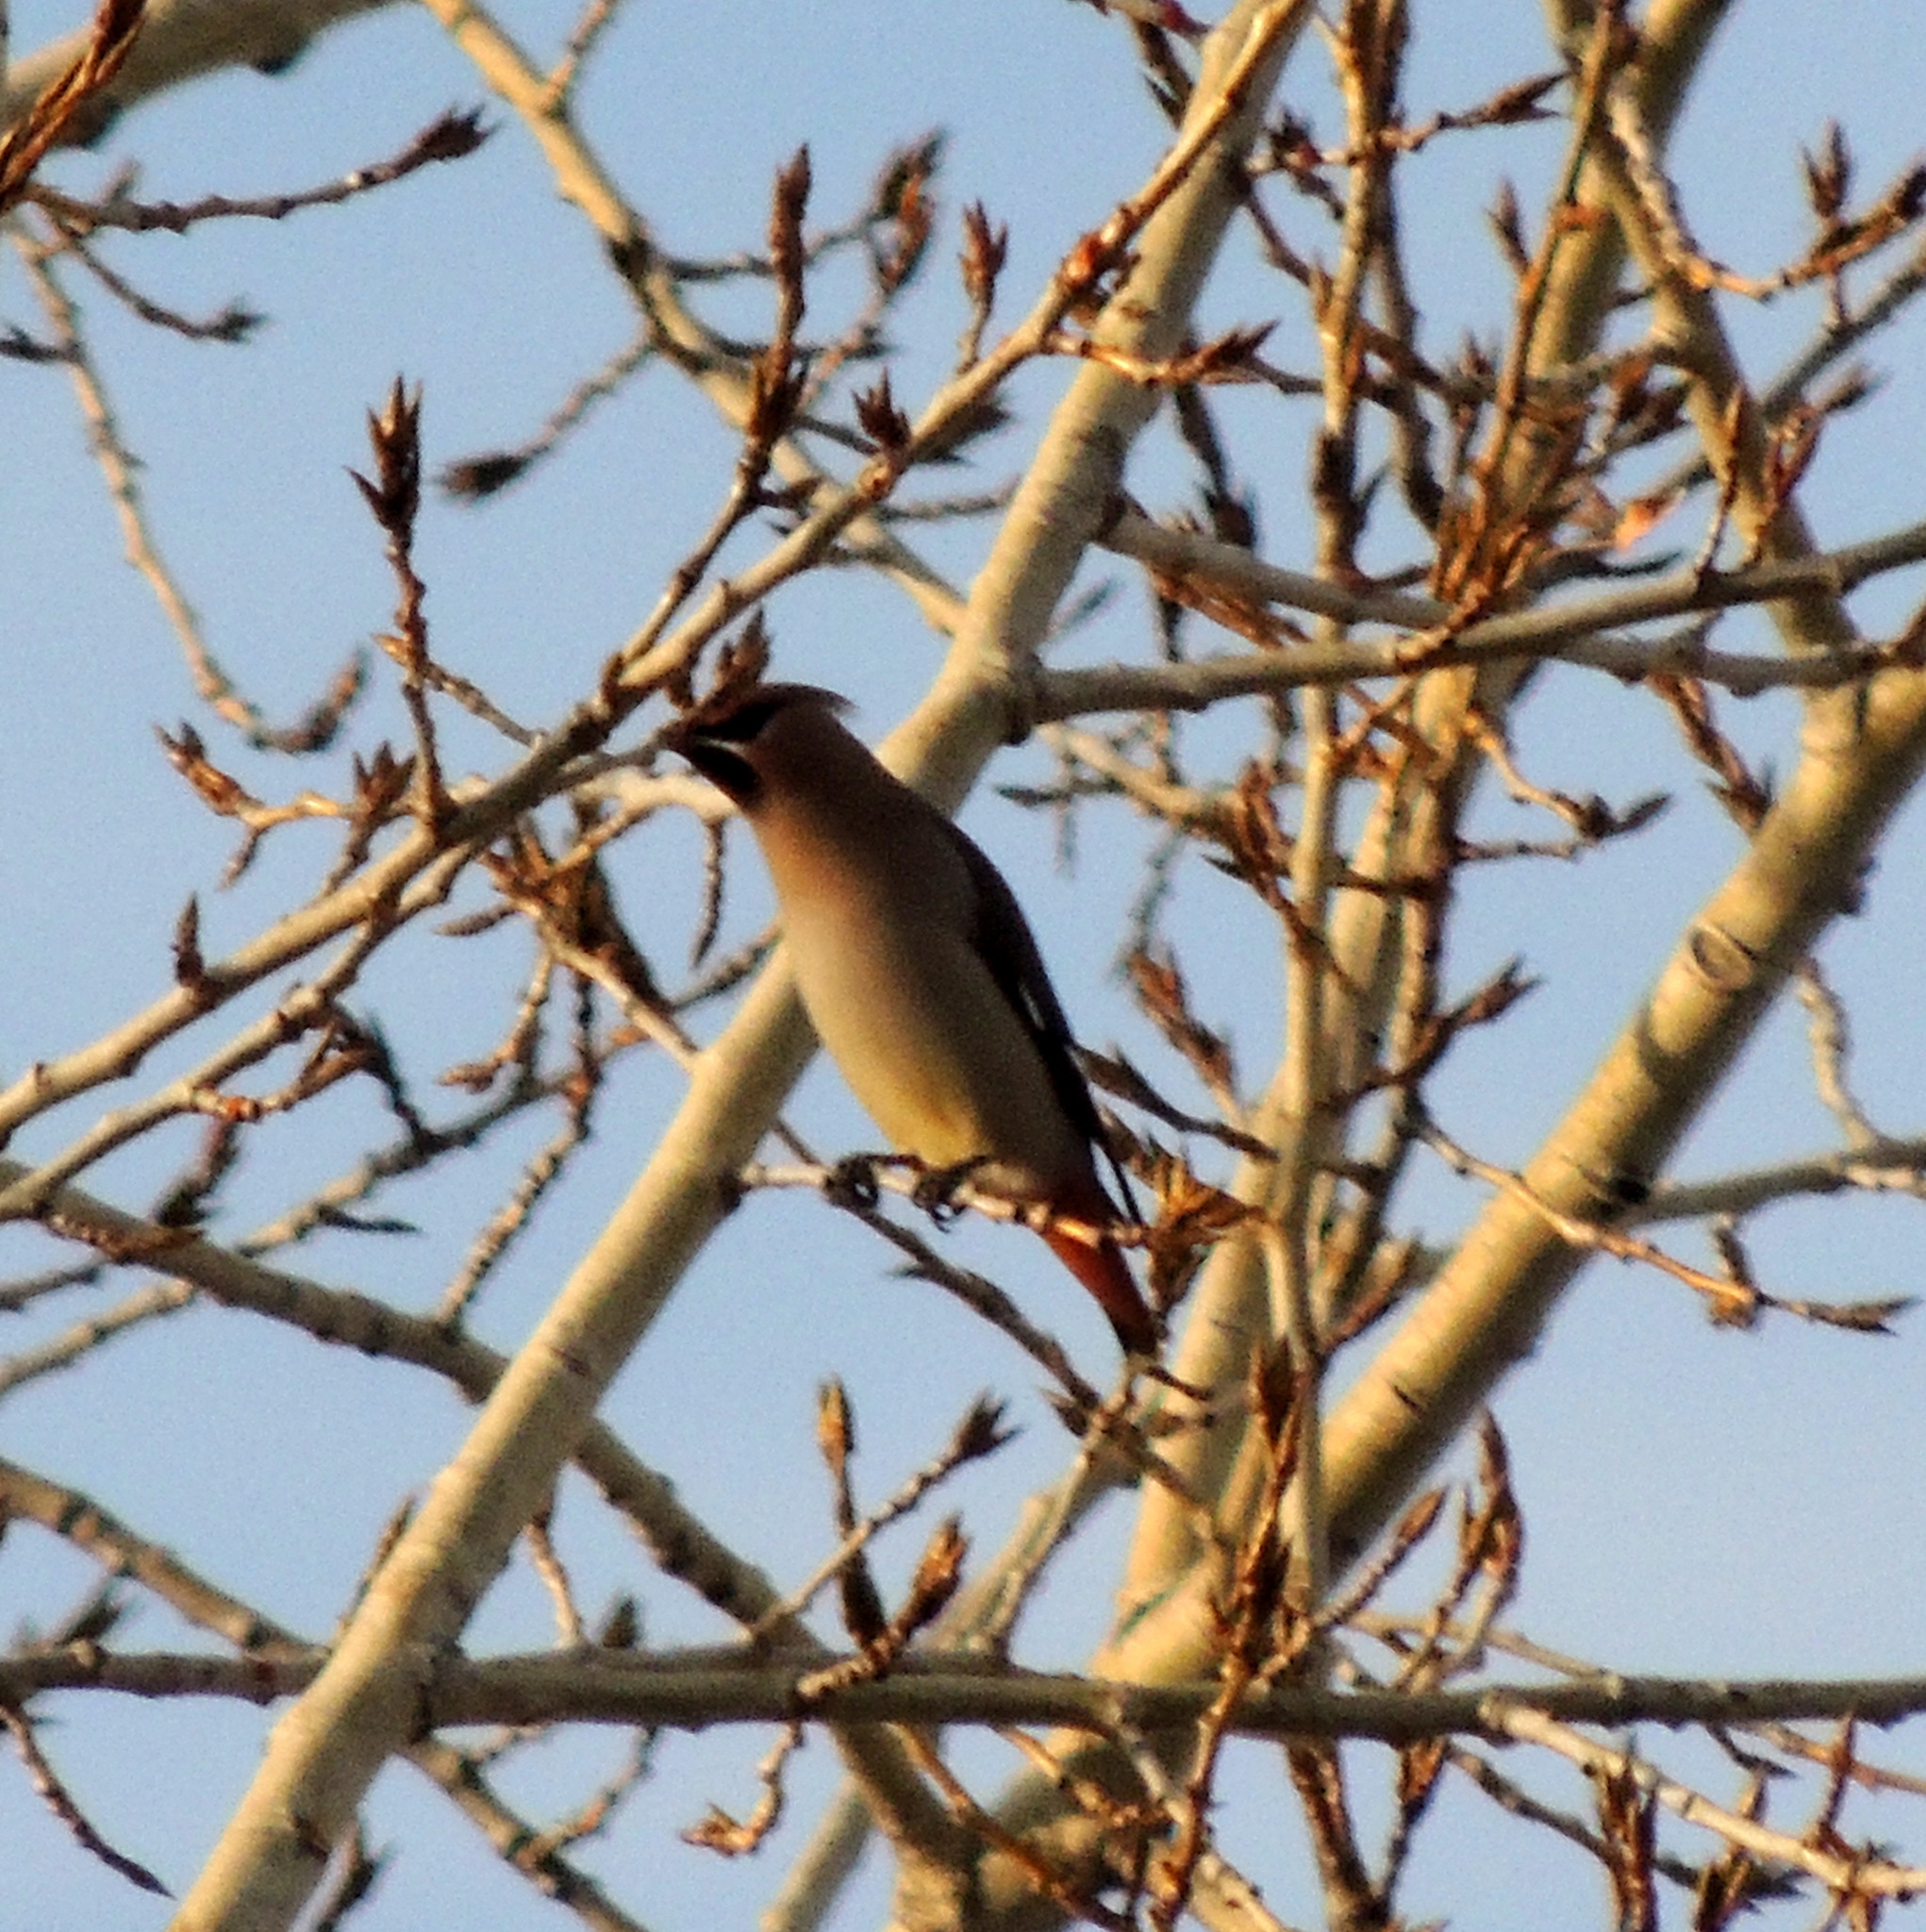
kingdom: Animalia
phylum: Chordata
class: Aves
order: Passeriformes
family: Bombycillidae
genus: Bombycilla
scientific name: Bombycilla garrulus
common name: Bohemian waxwing
